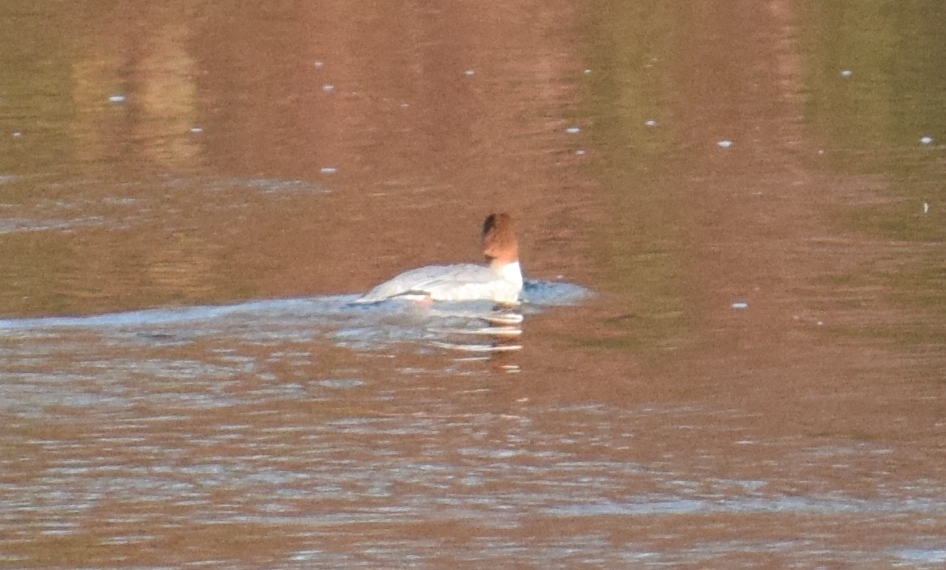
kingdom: Animalia
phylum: Chordata
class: Aves
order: Anseriformes
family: Anatidae
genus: Mergus
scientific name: Mergus merganser
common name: Common merganser
